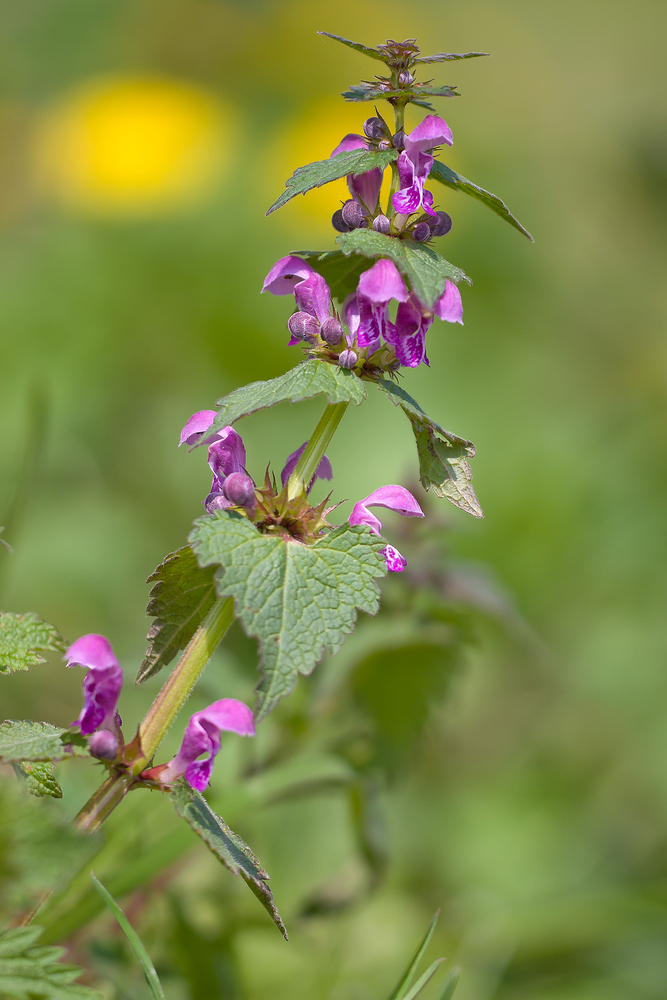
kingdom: Plantae
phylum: Tracheophyta
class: Magnoliopsida
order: Lamiales
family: Lamiaceae
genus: Lamium
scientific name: Lamium maculatum
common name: Spotted dead-nettle
